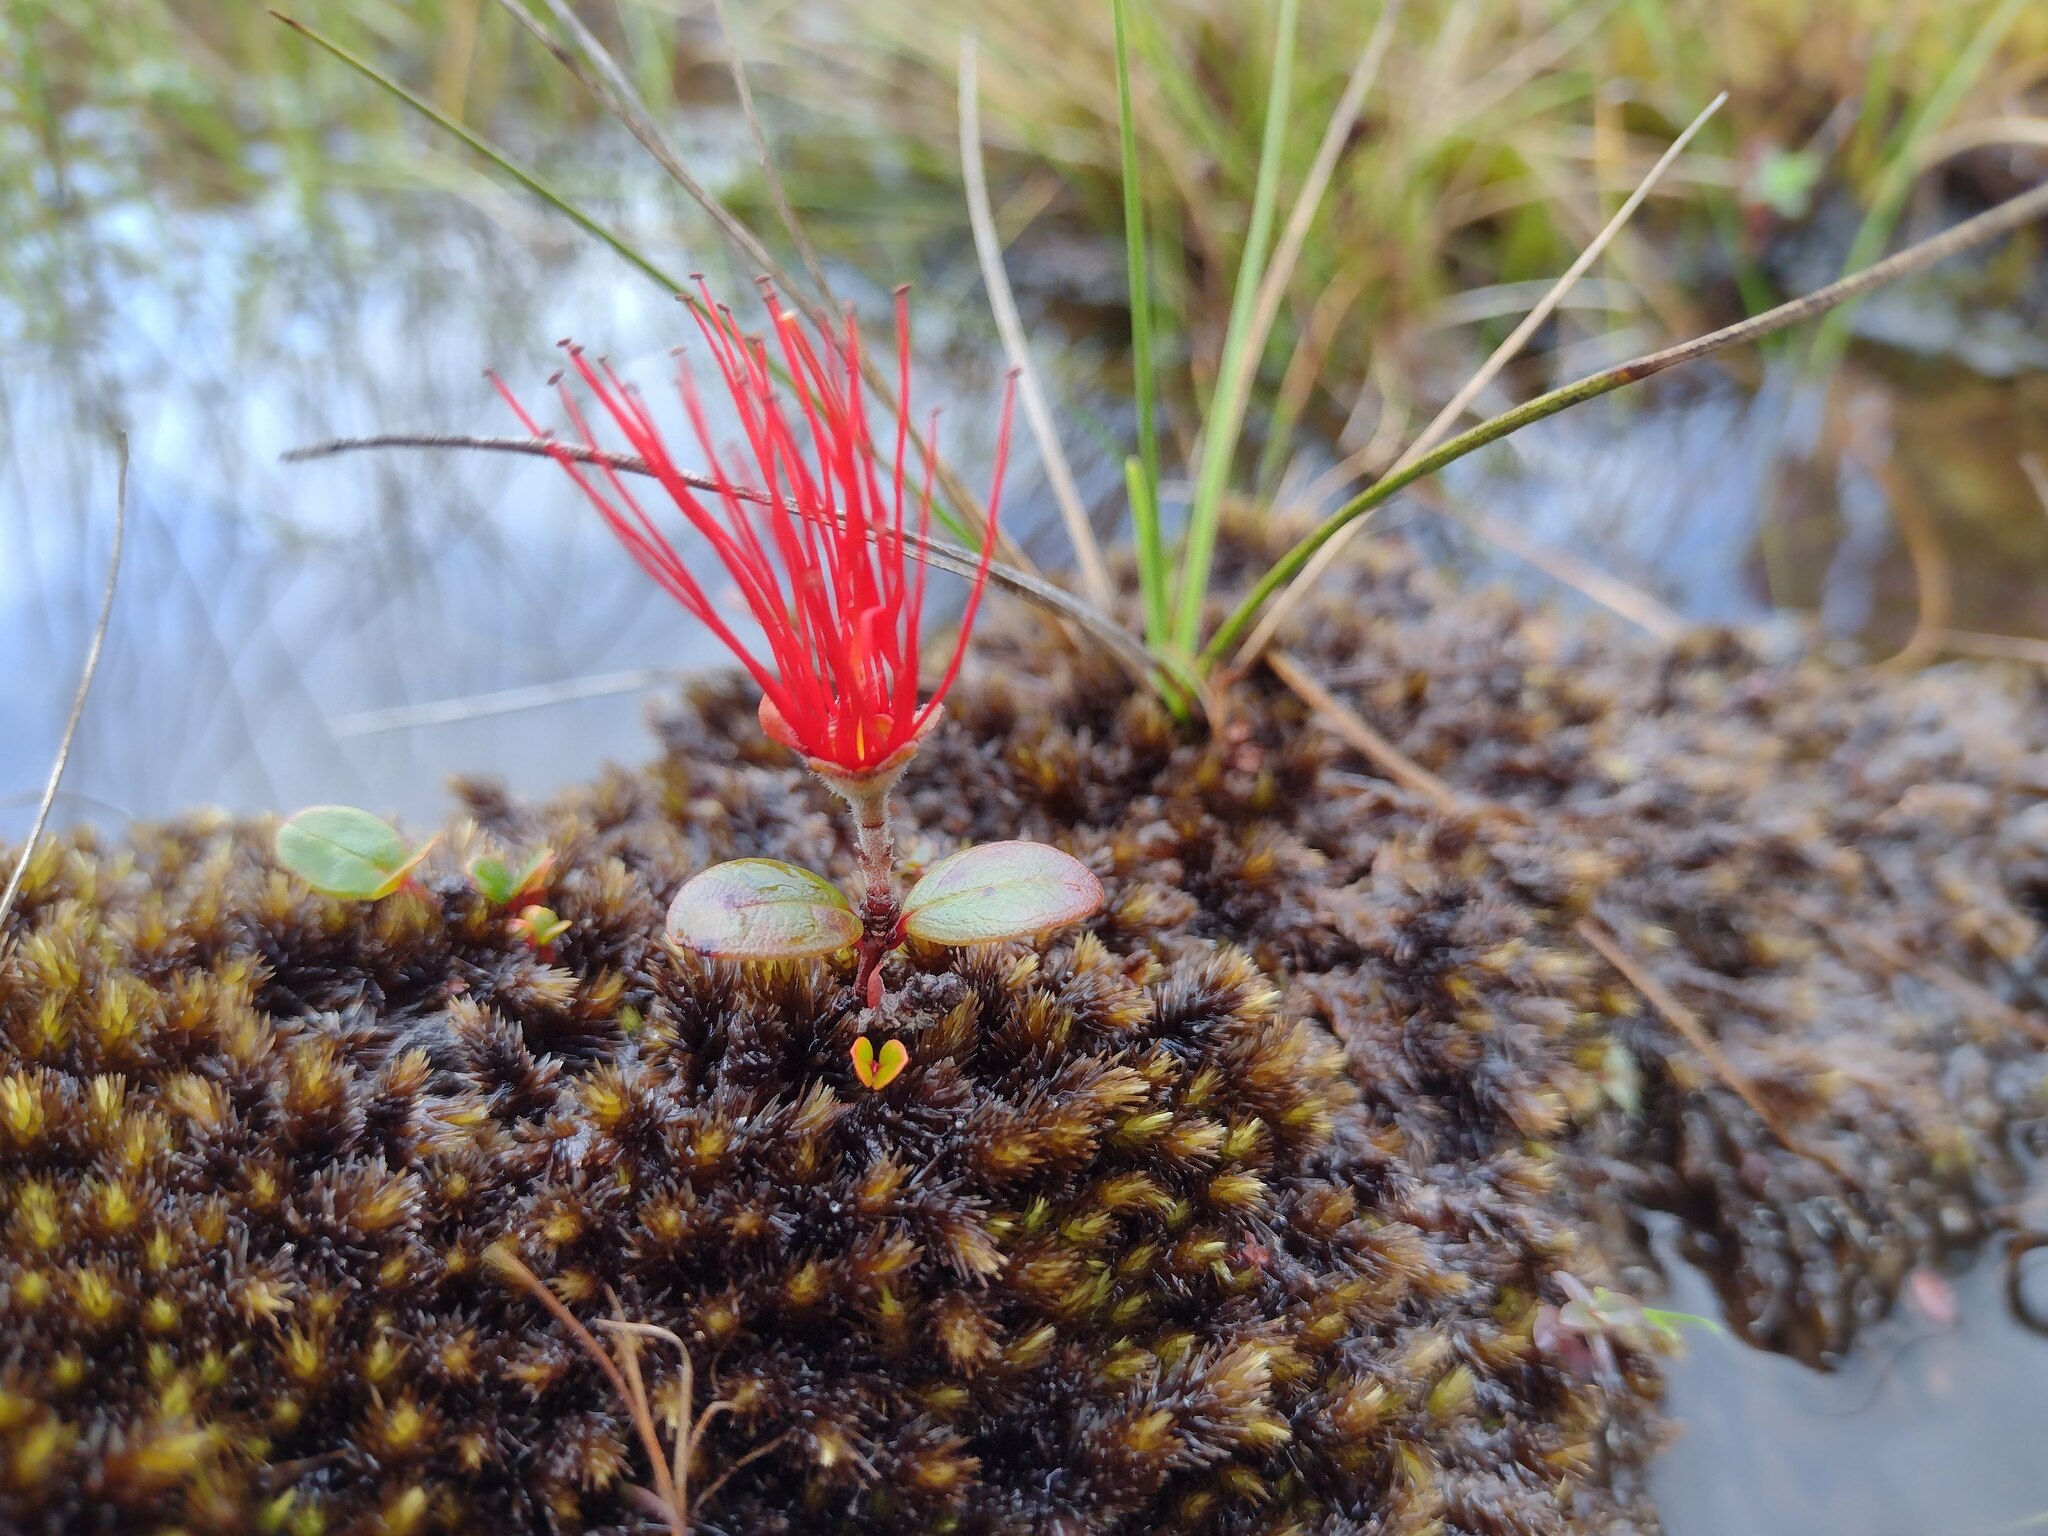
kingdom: Plantae
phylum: Tracheophyta
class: Magnoliopsida
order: Myrtales
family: Myrtaceae
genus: Metrosideros
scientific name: Metrosideros polymorpha
